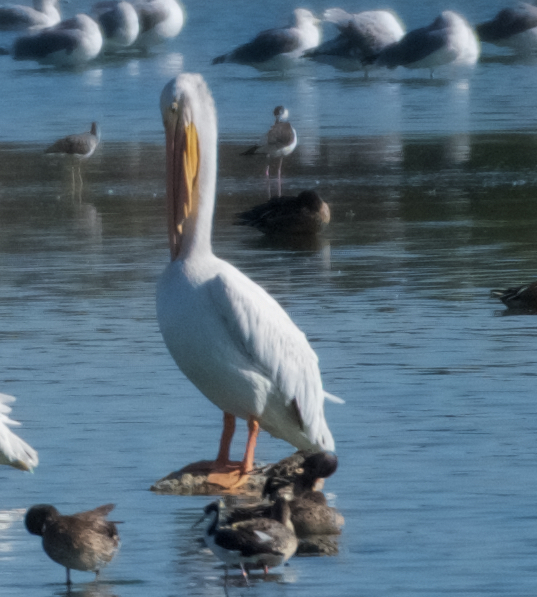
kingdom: Animalia
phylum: Chordata
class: Aves
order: Pelecaniformes
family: Pelecanidae
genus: Pelecanus
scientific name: Pelecanus erythrorhynchos
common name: American white pelican
